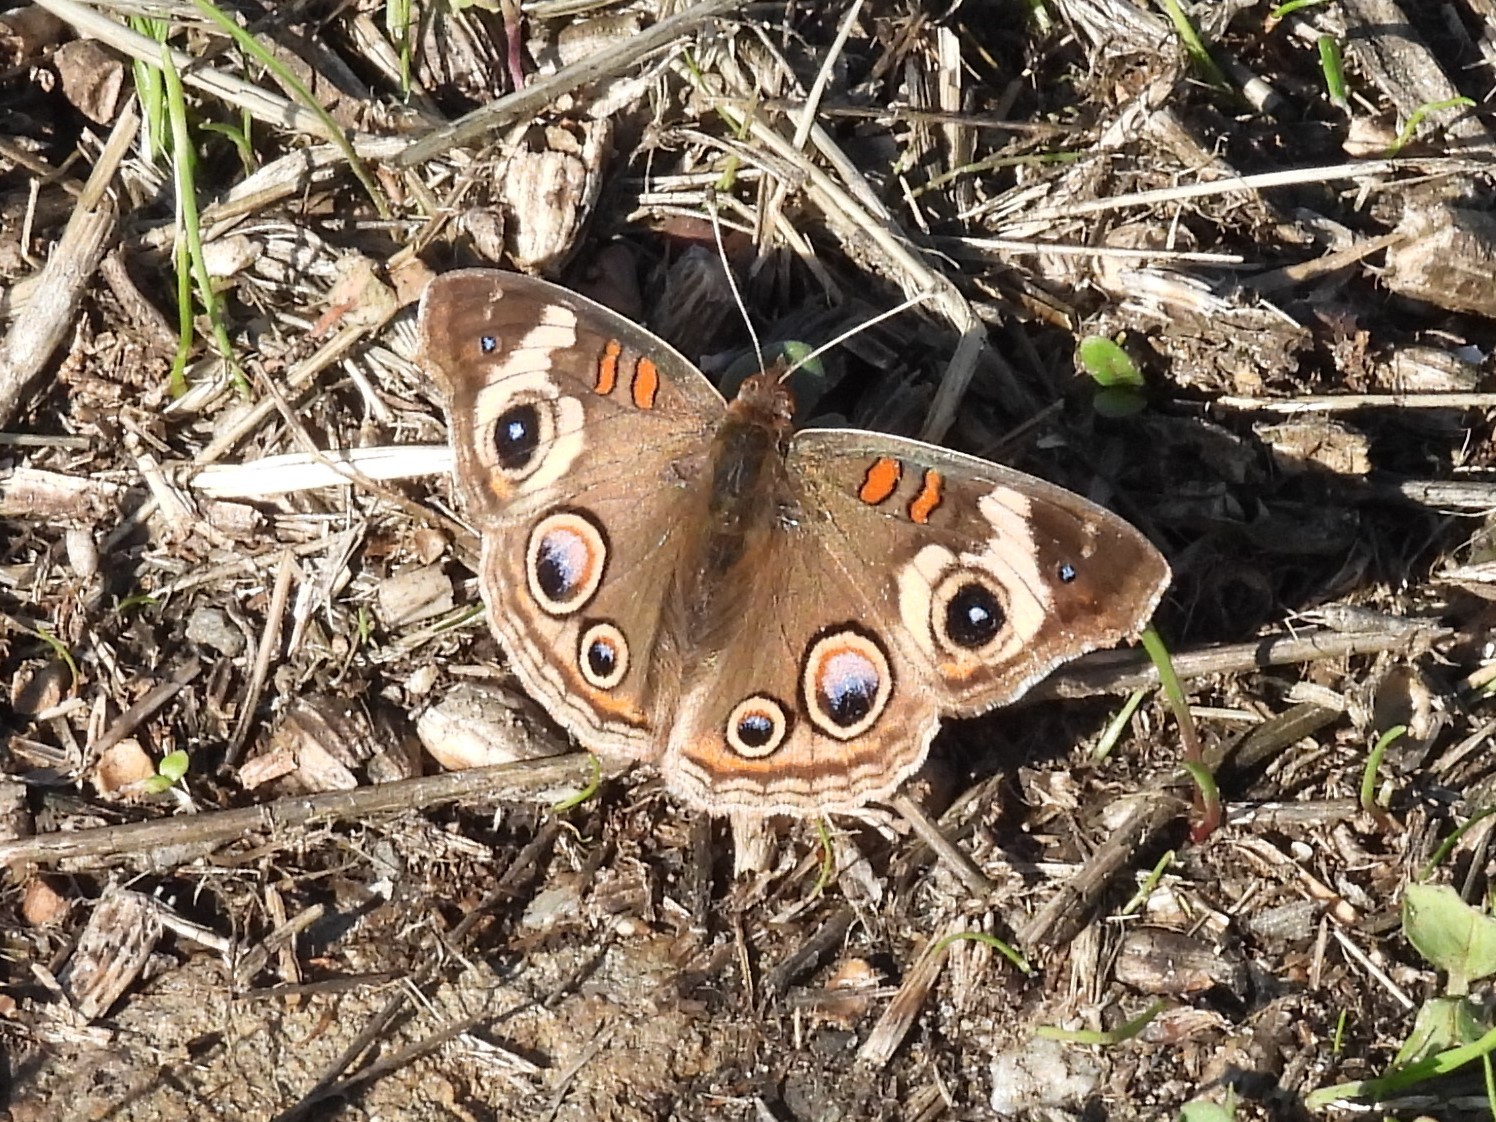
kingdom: Animalia
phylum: Arthropoda
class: Insecta
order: Lepidoptera
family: Nymphalidae
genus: Junonia
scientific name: Junonia grisea
